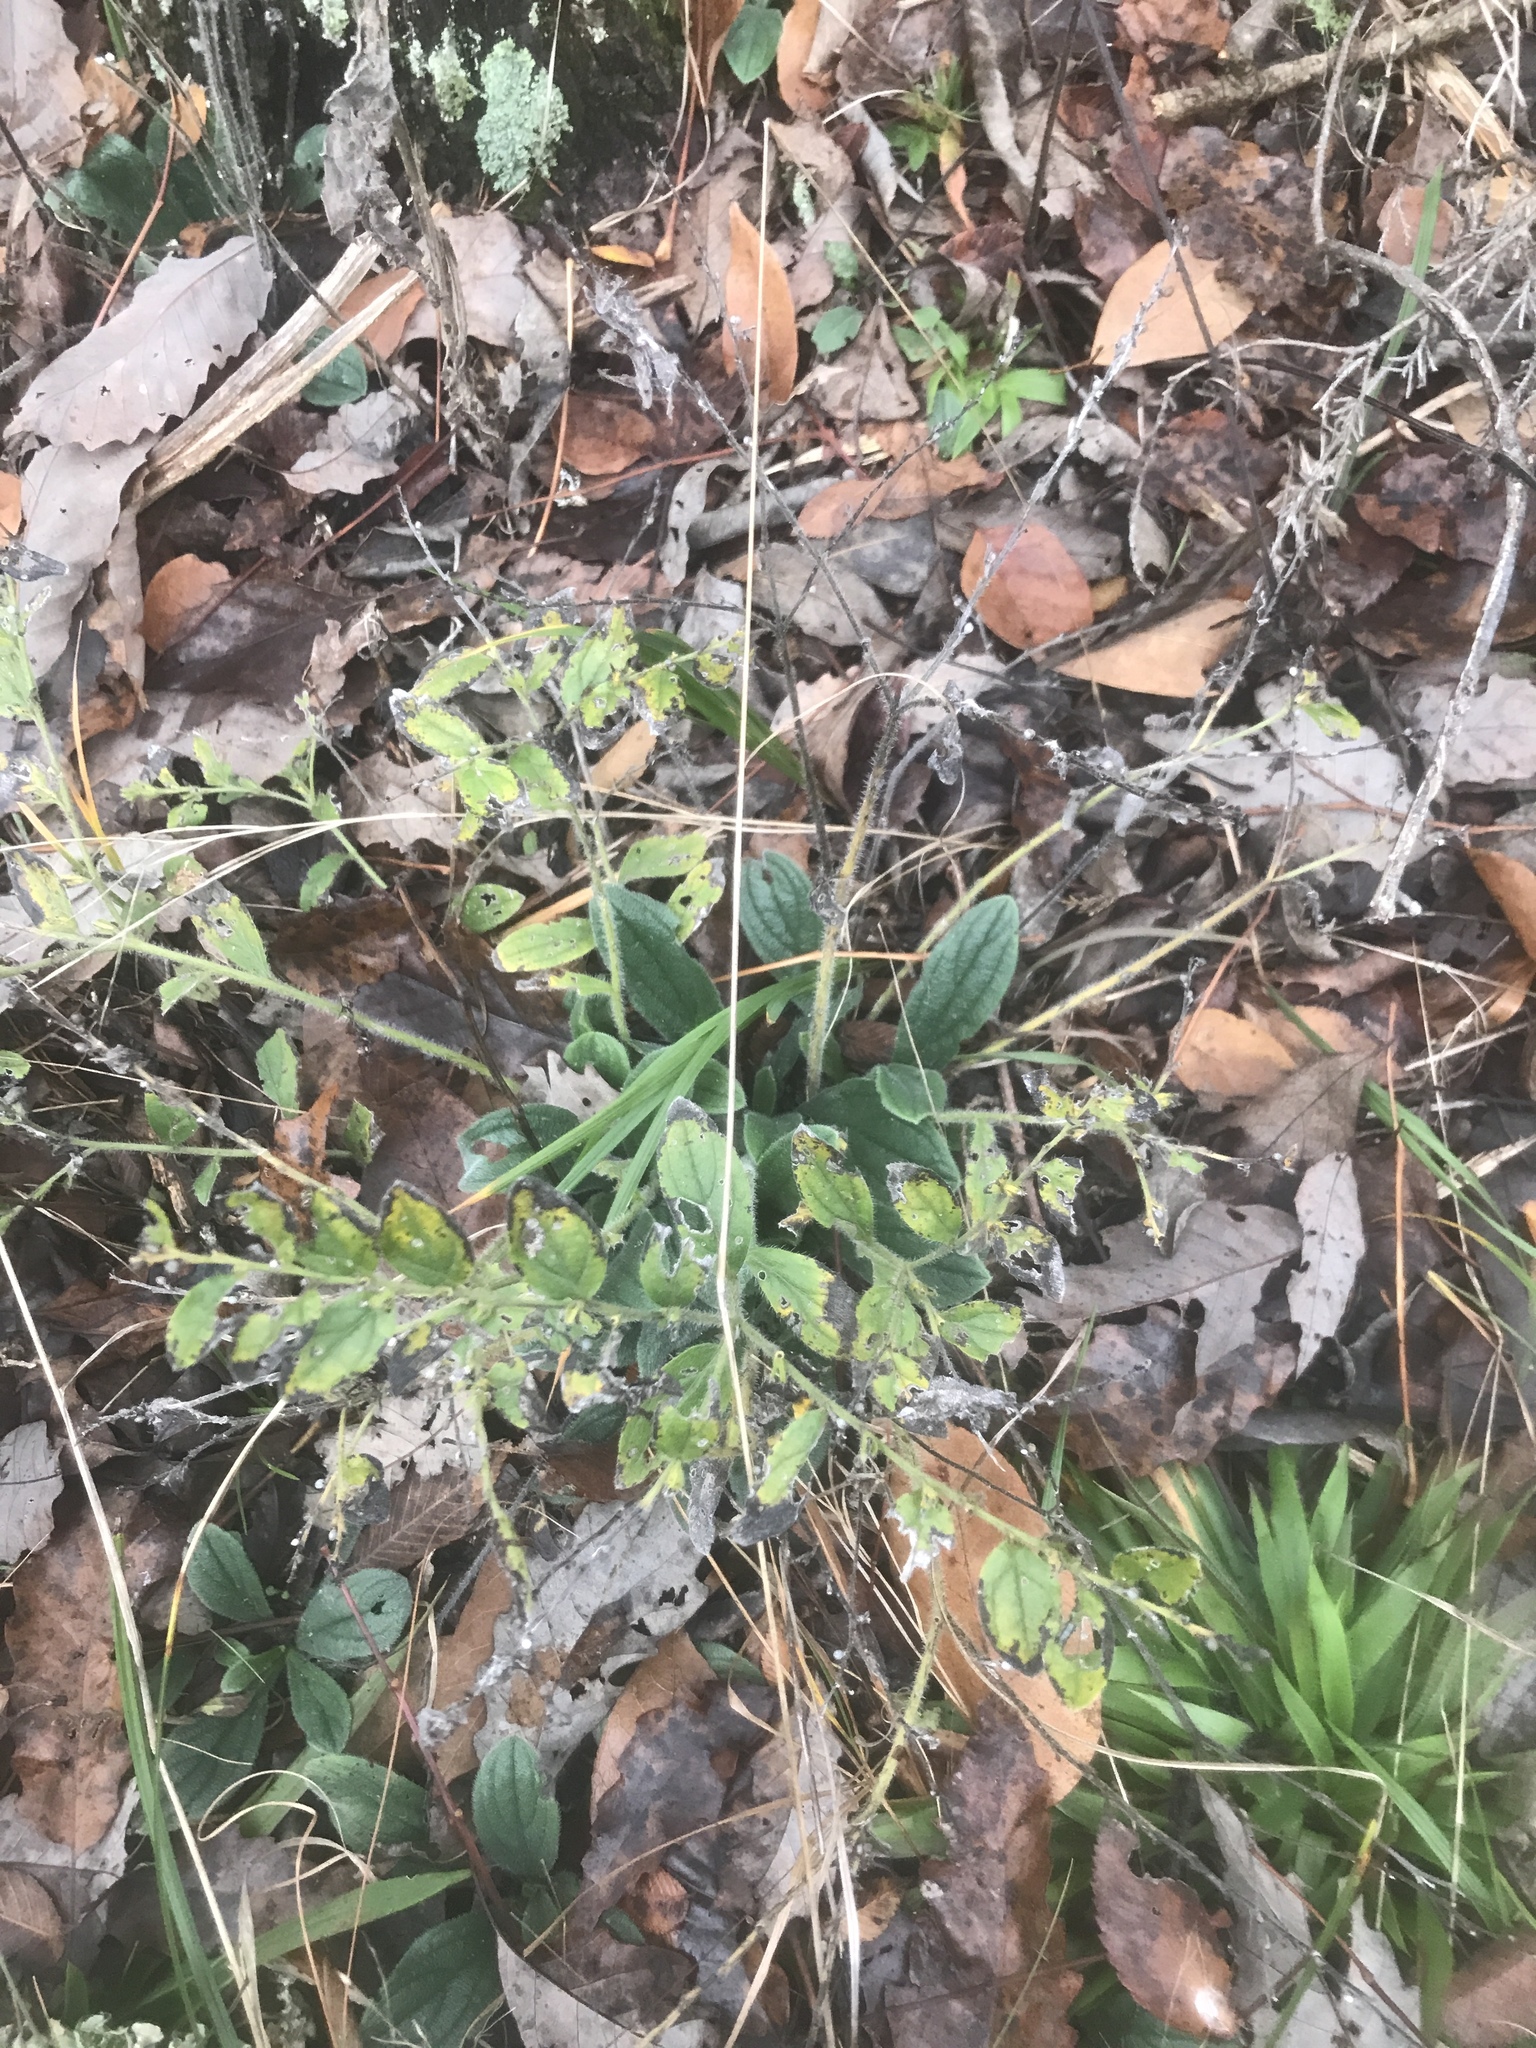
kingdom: Plantae
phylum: Tracheophyta
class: Magnoliopsida
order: Boraginales
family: Boraginaceae
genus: Lithospermum
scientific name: Lithospermum tuberosum
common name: Southern stoneseed
